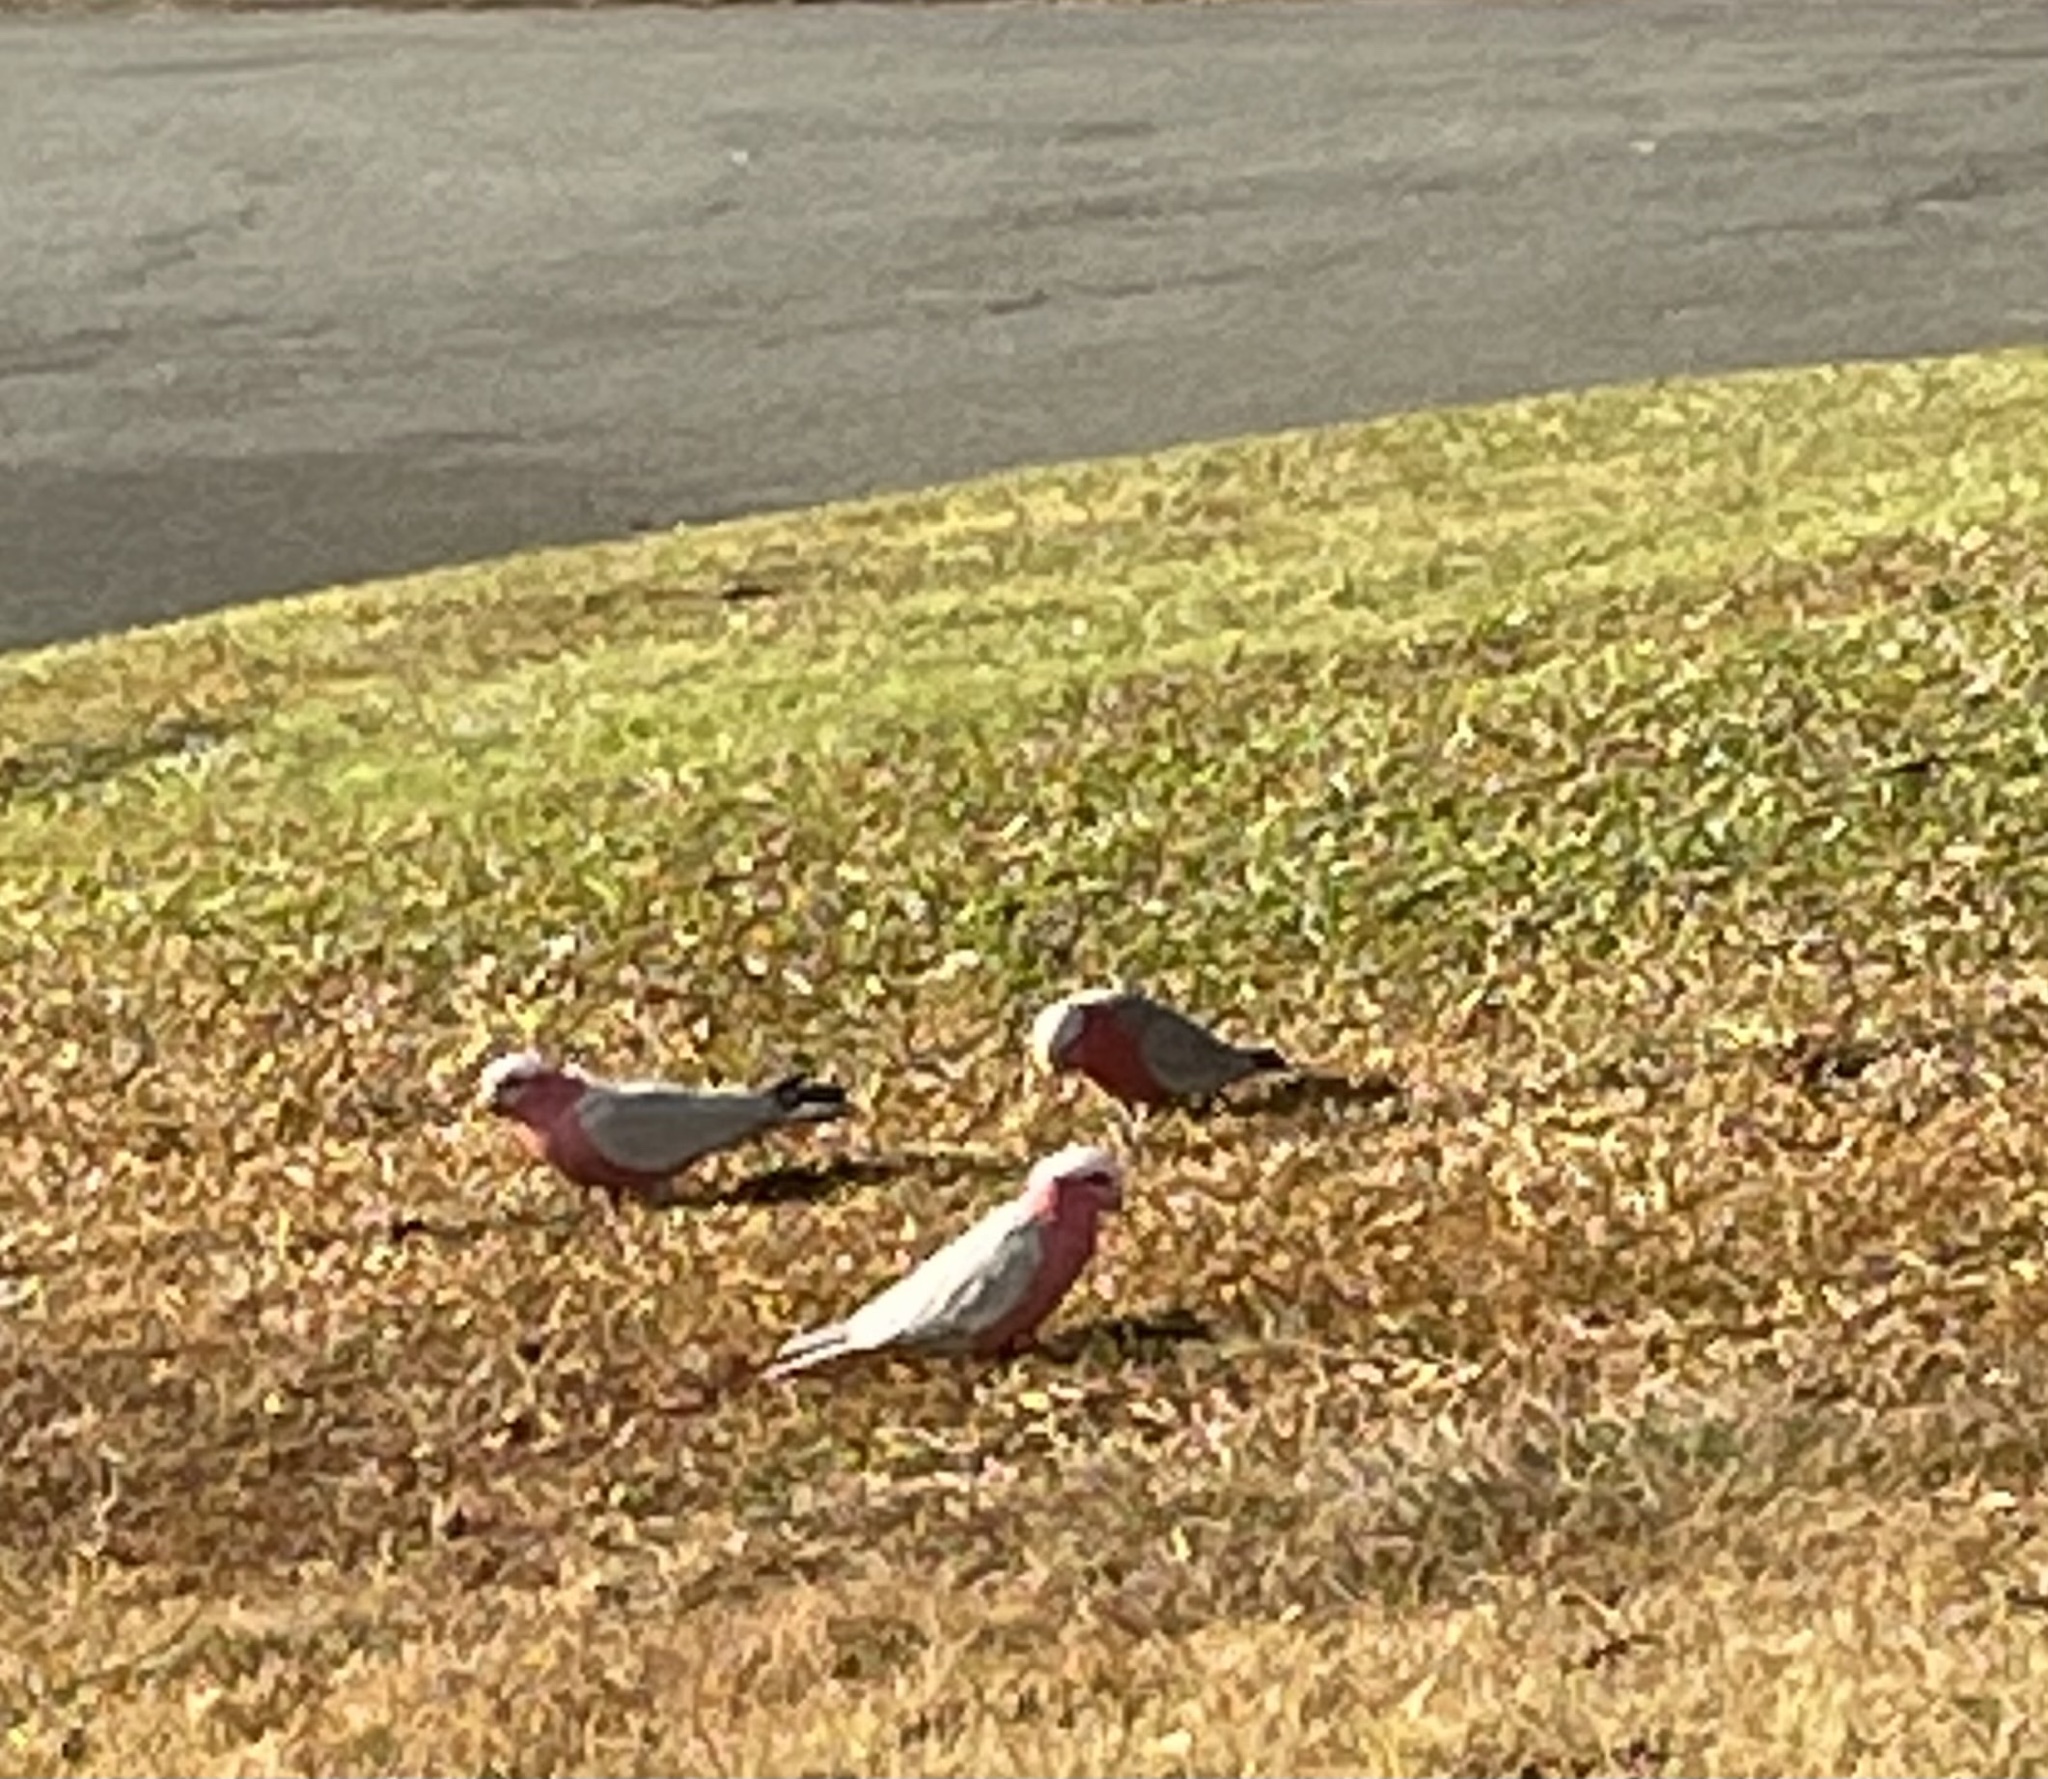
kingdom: Animalia
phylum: Chordata
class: Aves
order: Psittaciformes
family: Psittacidae
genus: Eolophus
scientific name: Eolophus roseicapilla
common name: Galah
